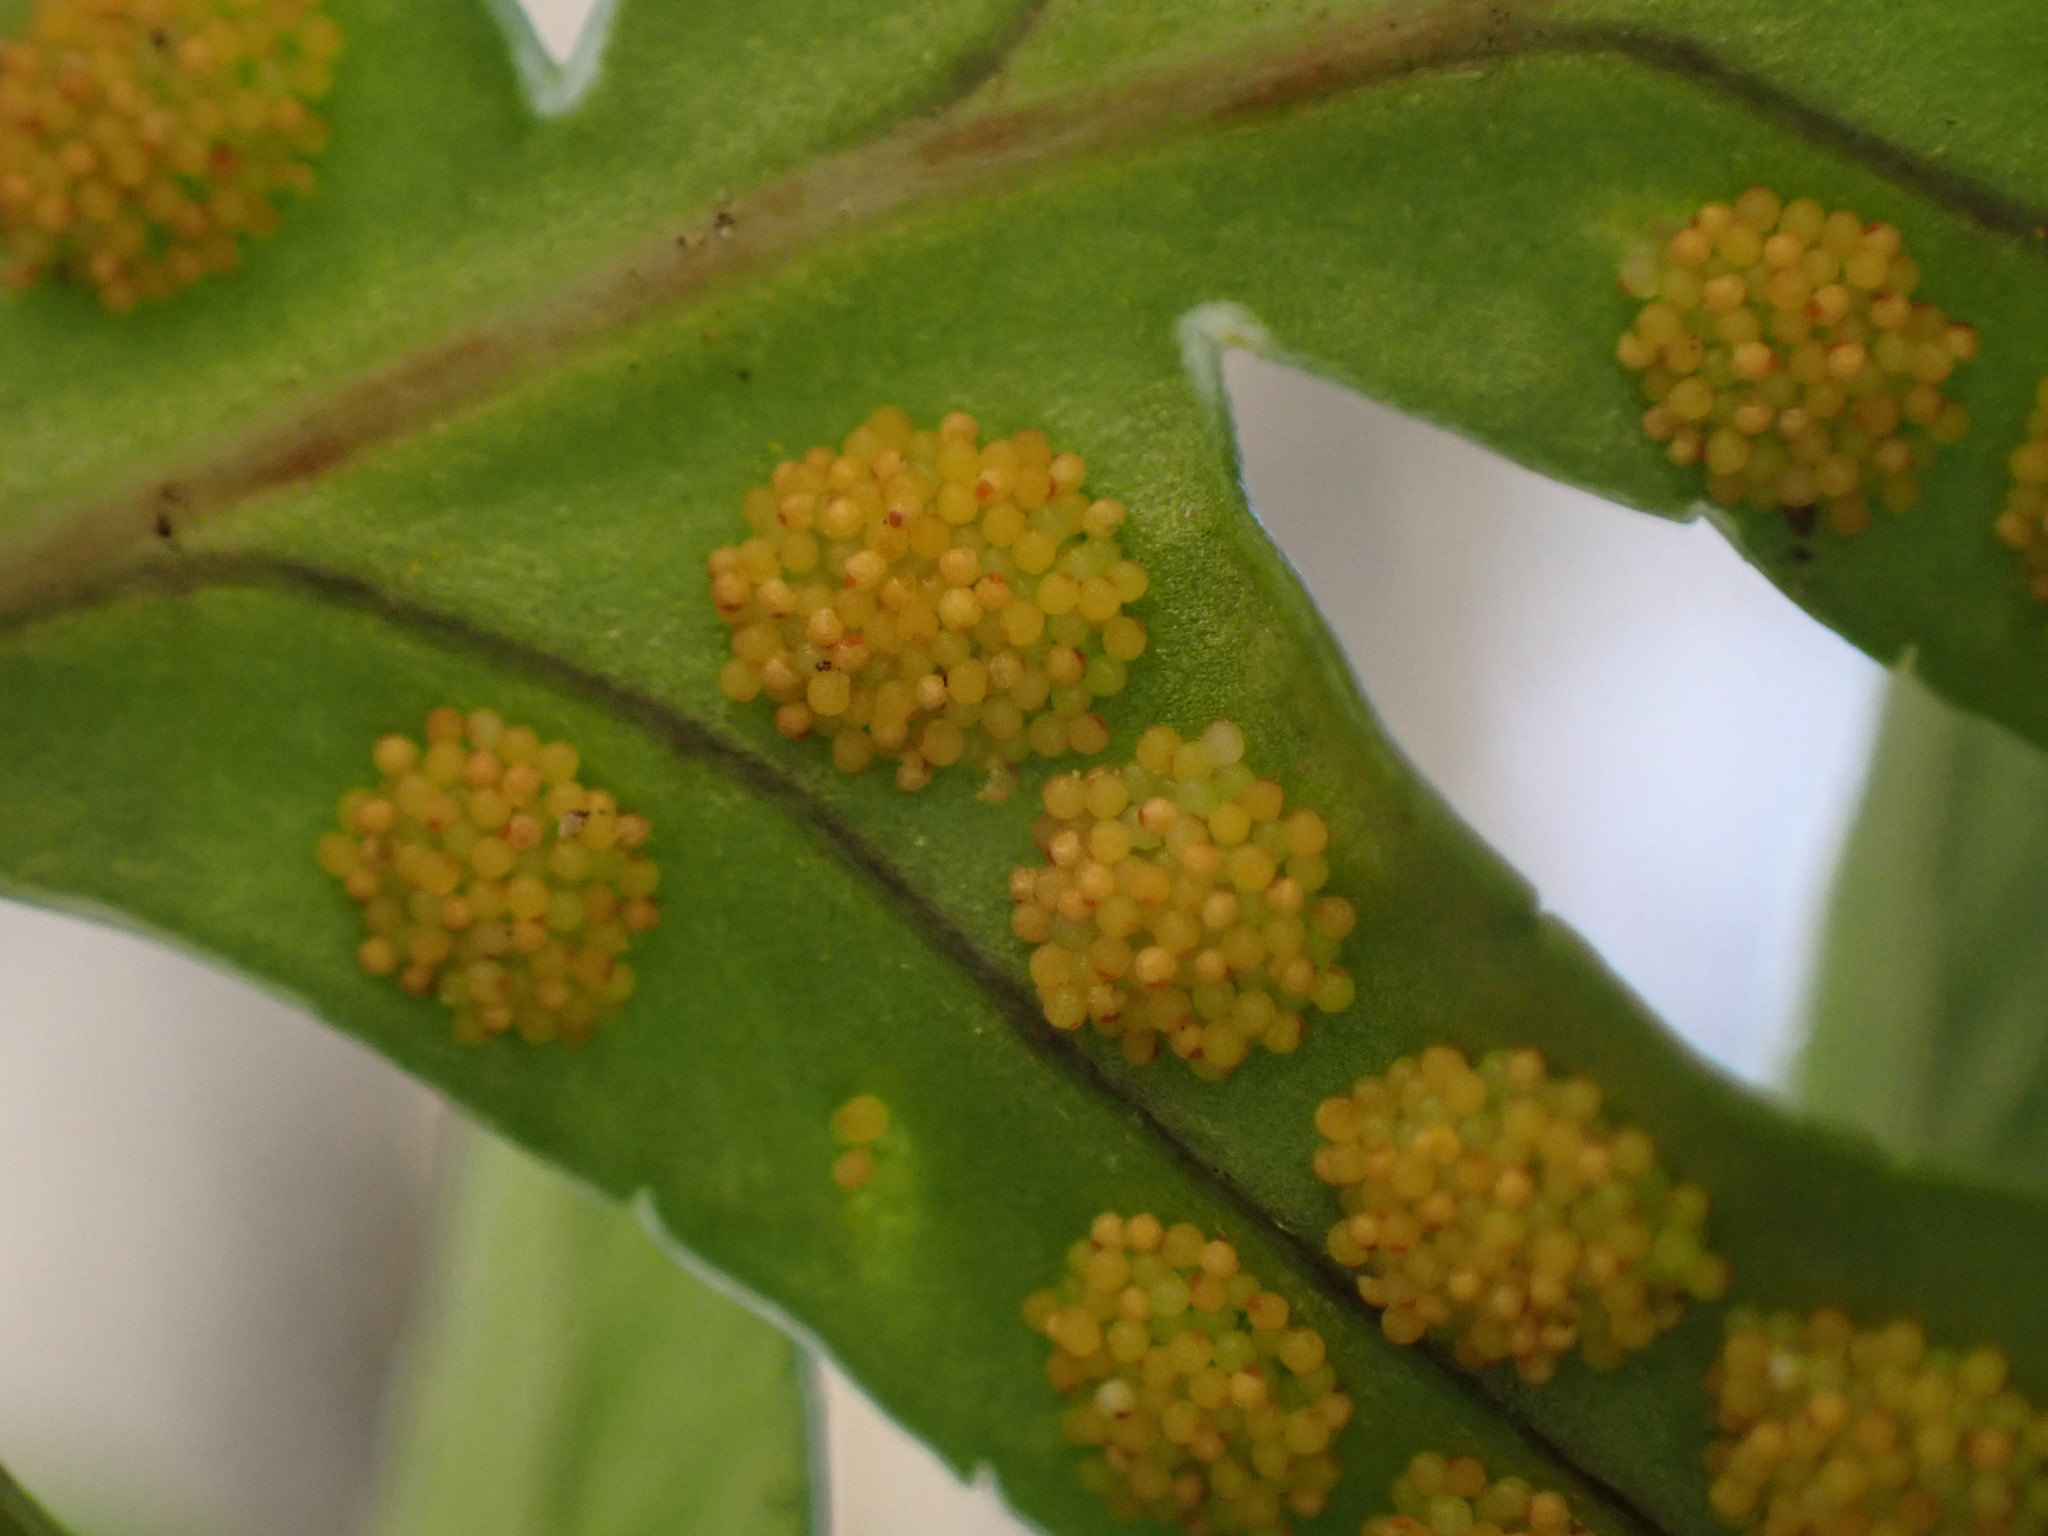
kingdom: Plantae
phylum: Tracheophyta
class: Polypodiopsida
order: Polypodiales
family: Polypodiaceae
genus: Polypodium
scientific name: Polypodium cambricum
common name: Southern polypody
